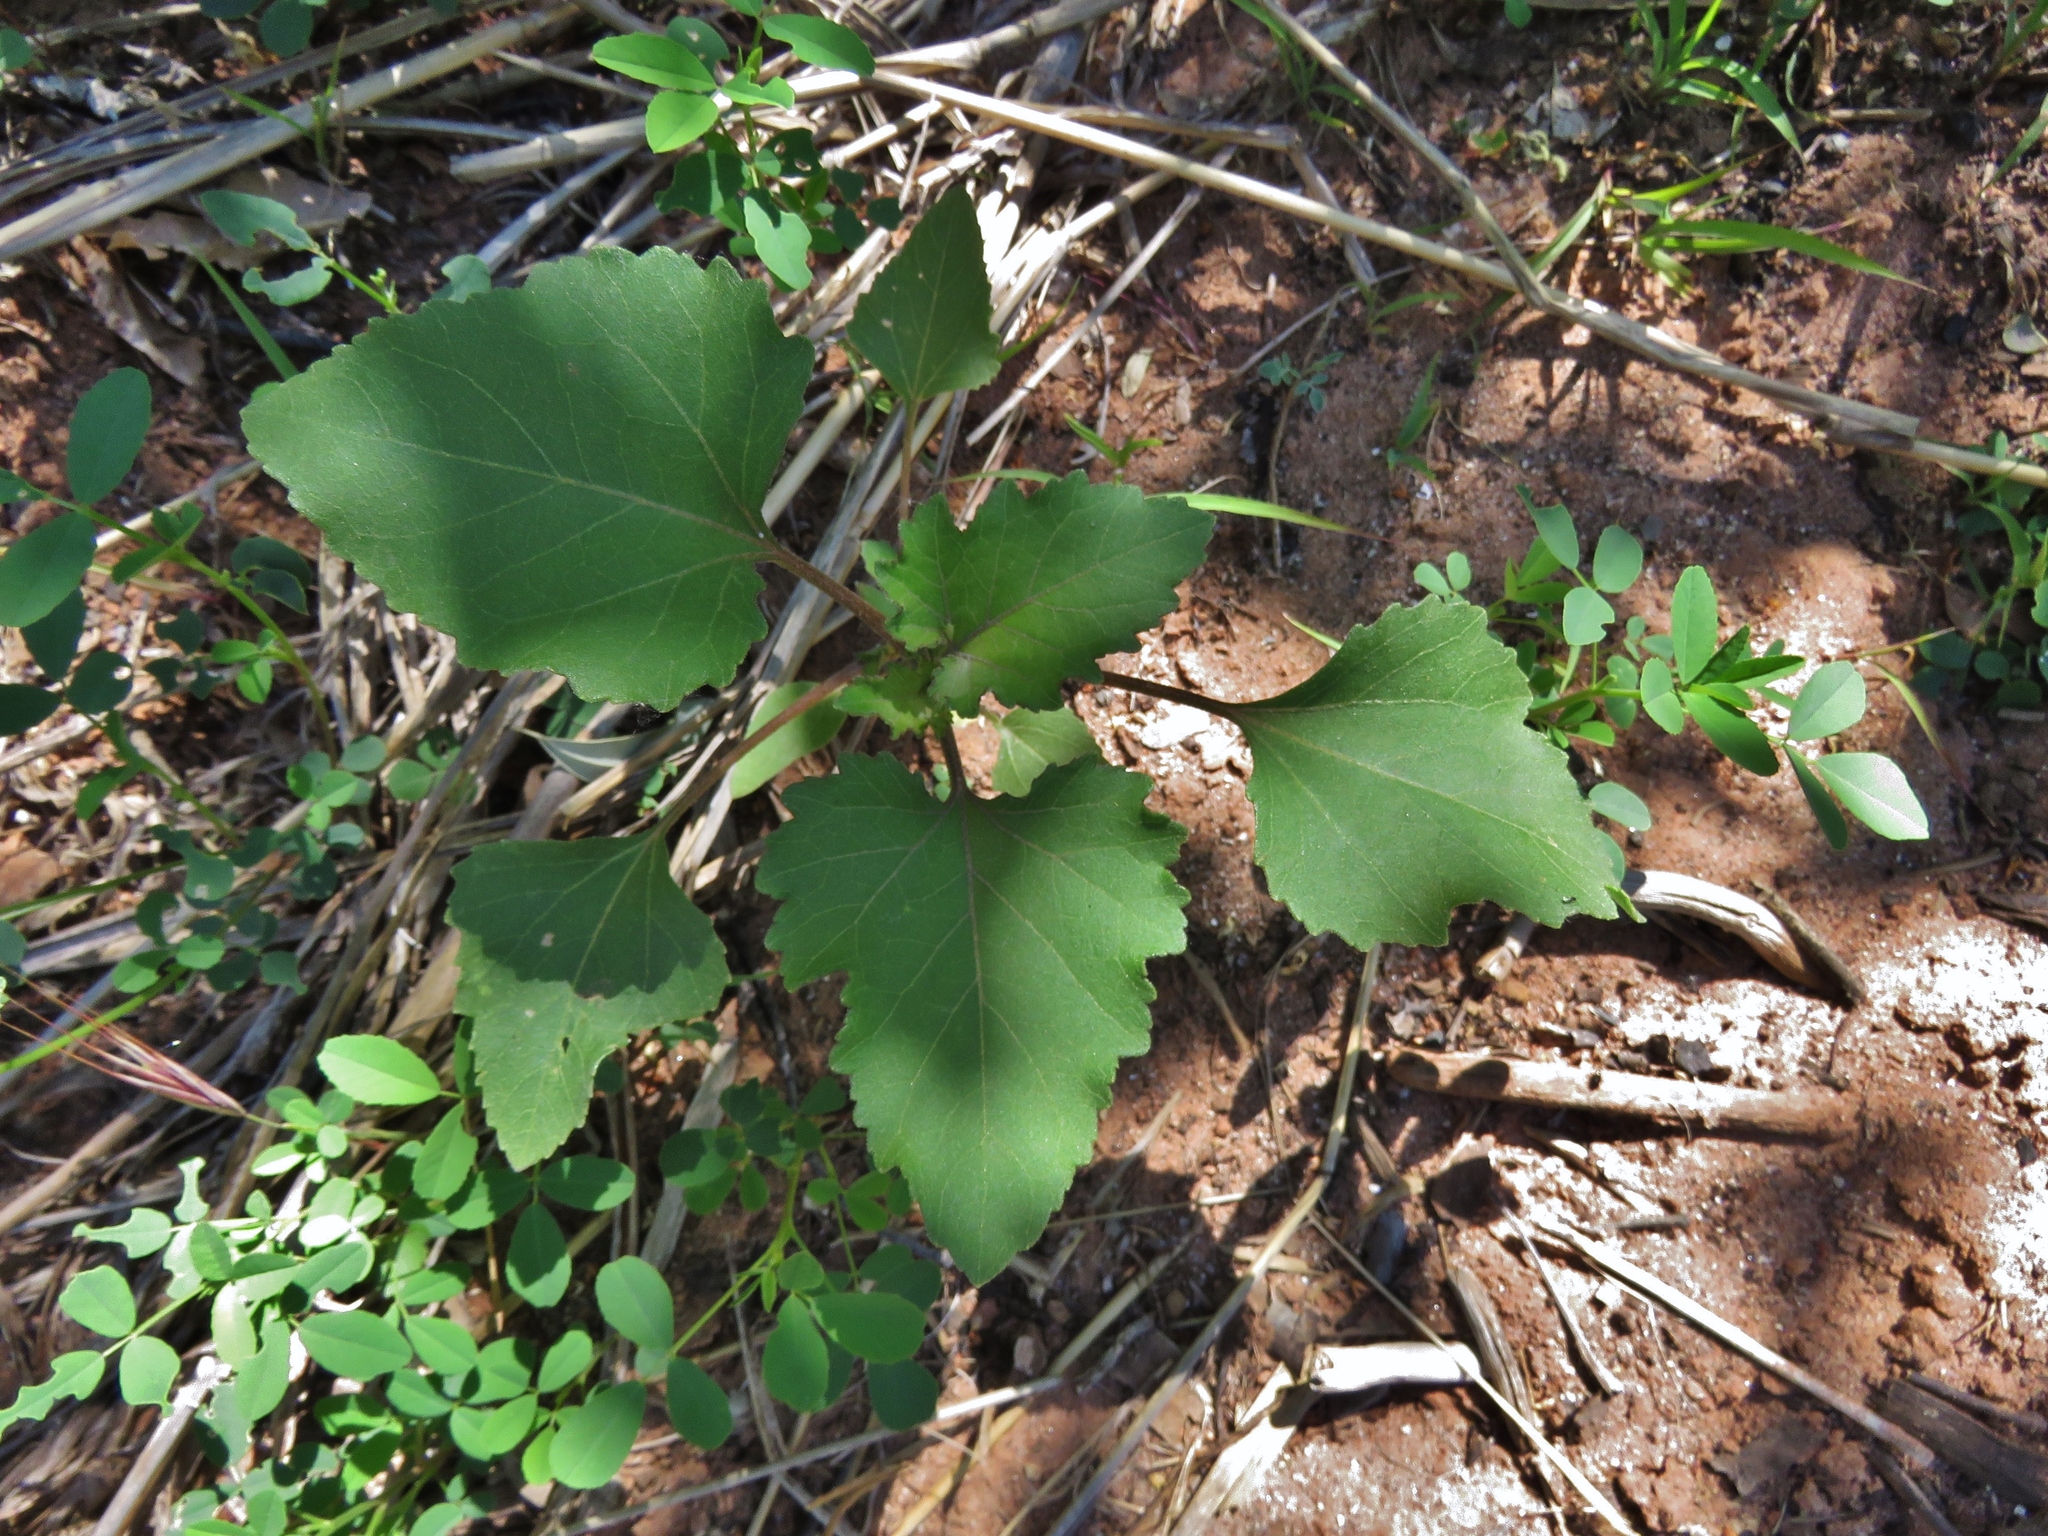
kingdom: Plantae
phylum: Tracheophyta
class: Magnoliopsida
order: Asterales
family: Asteraceae
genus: Xanthium
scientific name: Xanthium strumarium
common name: Rough cocklebur
